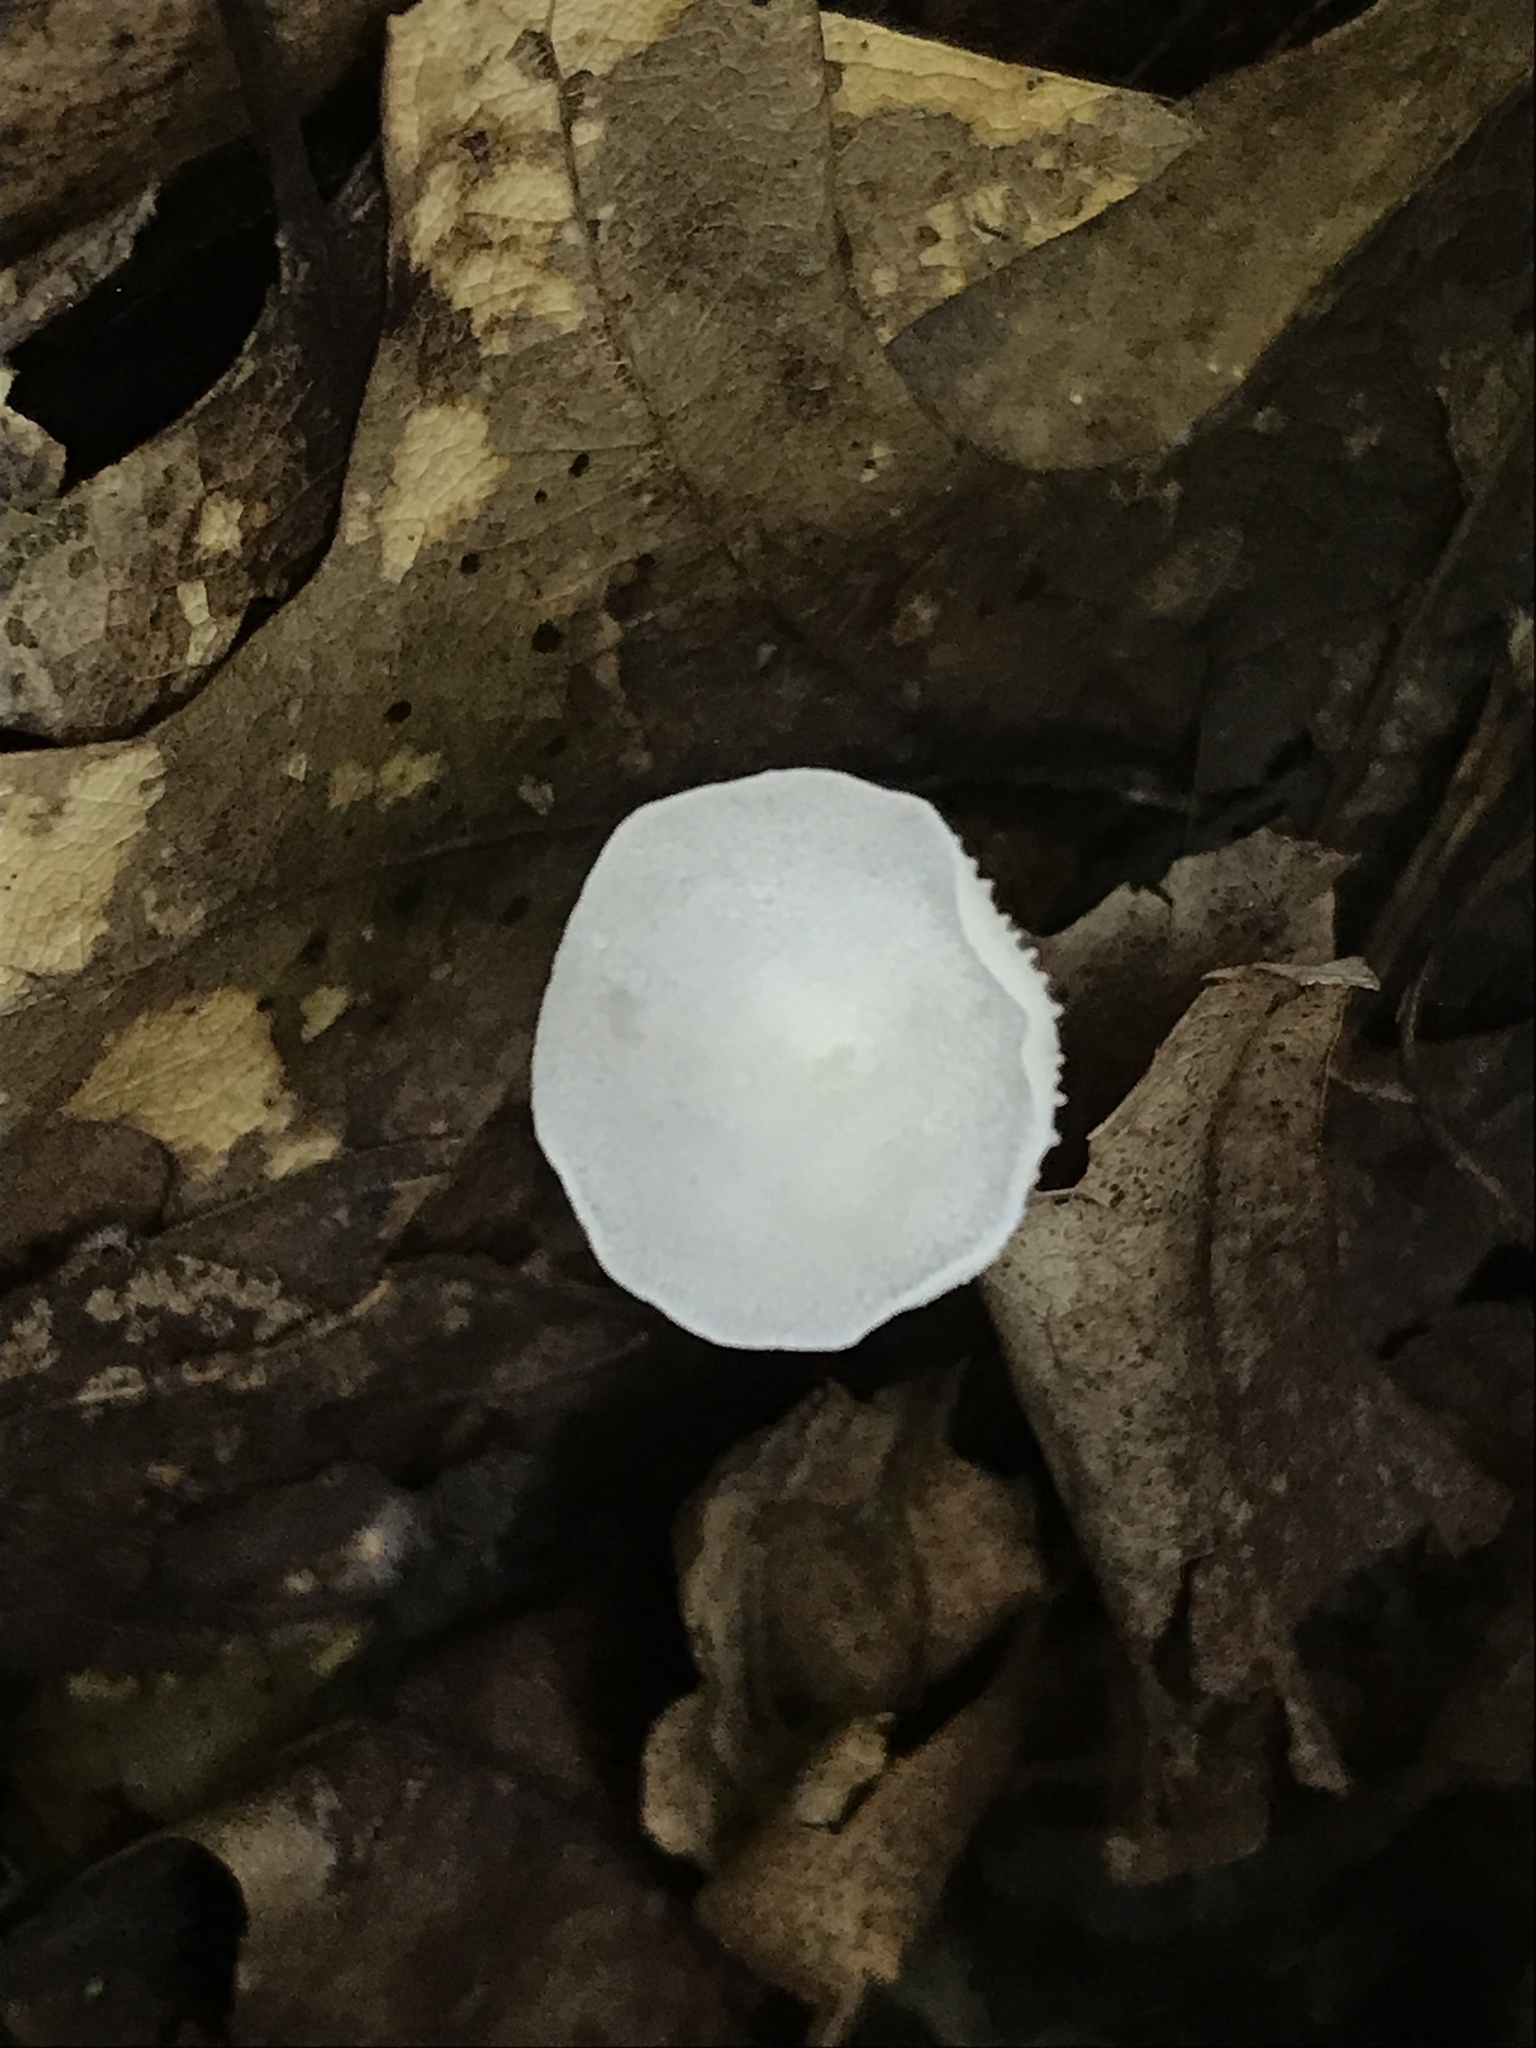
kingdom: Fungi
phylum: Basidiomycota
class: Agaricomycetes
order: Agaricales
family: Marasmiaceae
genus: Tetrapyrgos
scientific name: Tetrapyrgos nigripes
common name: Black-stalked marasmius
